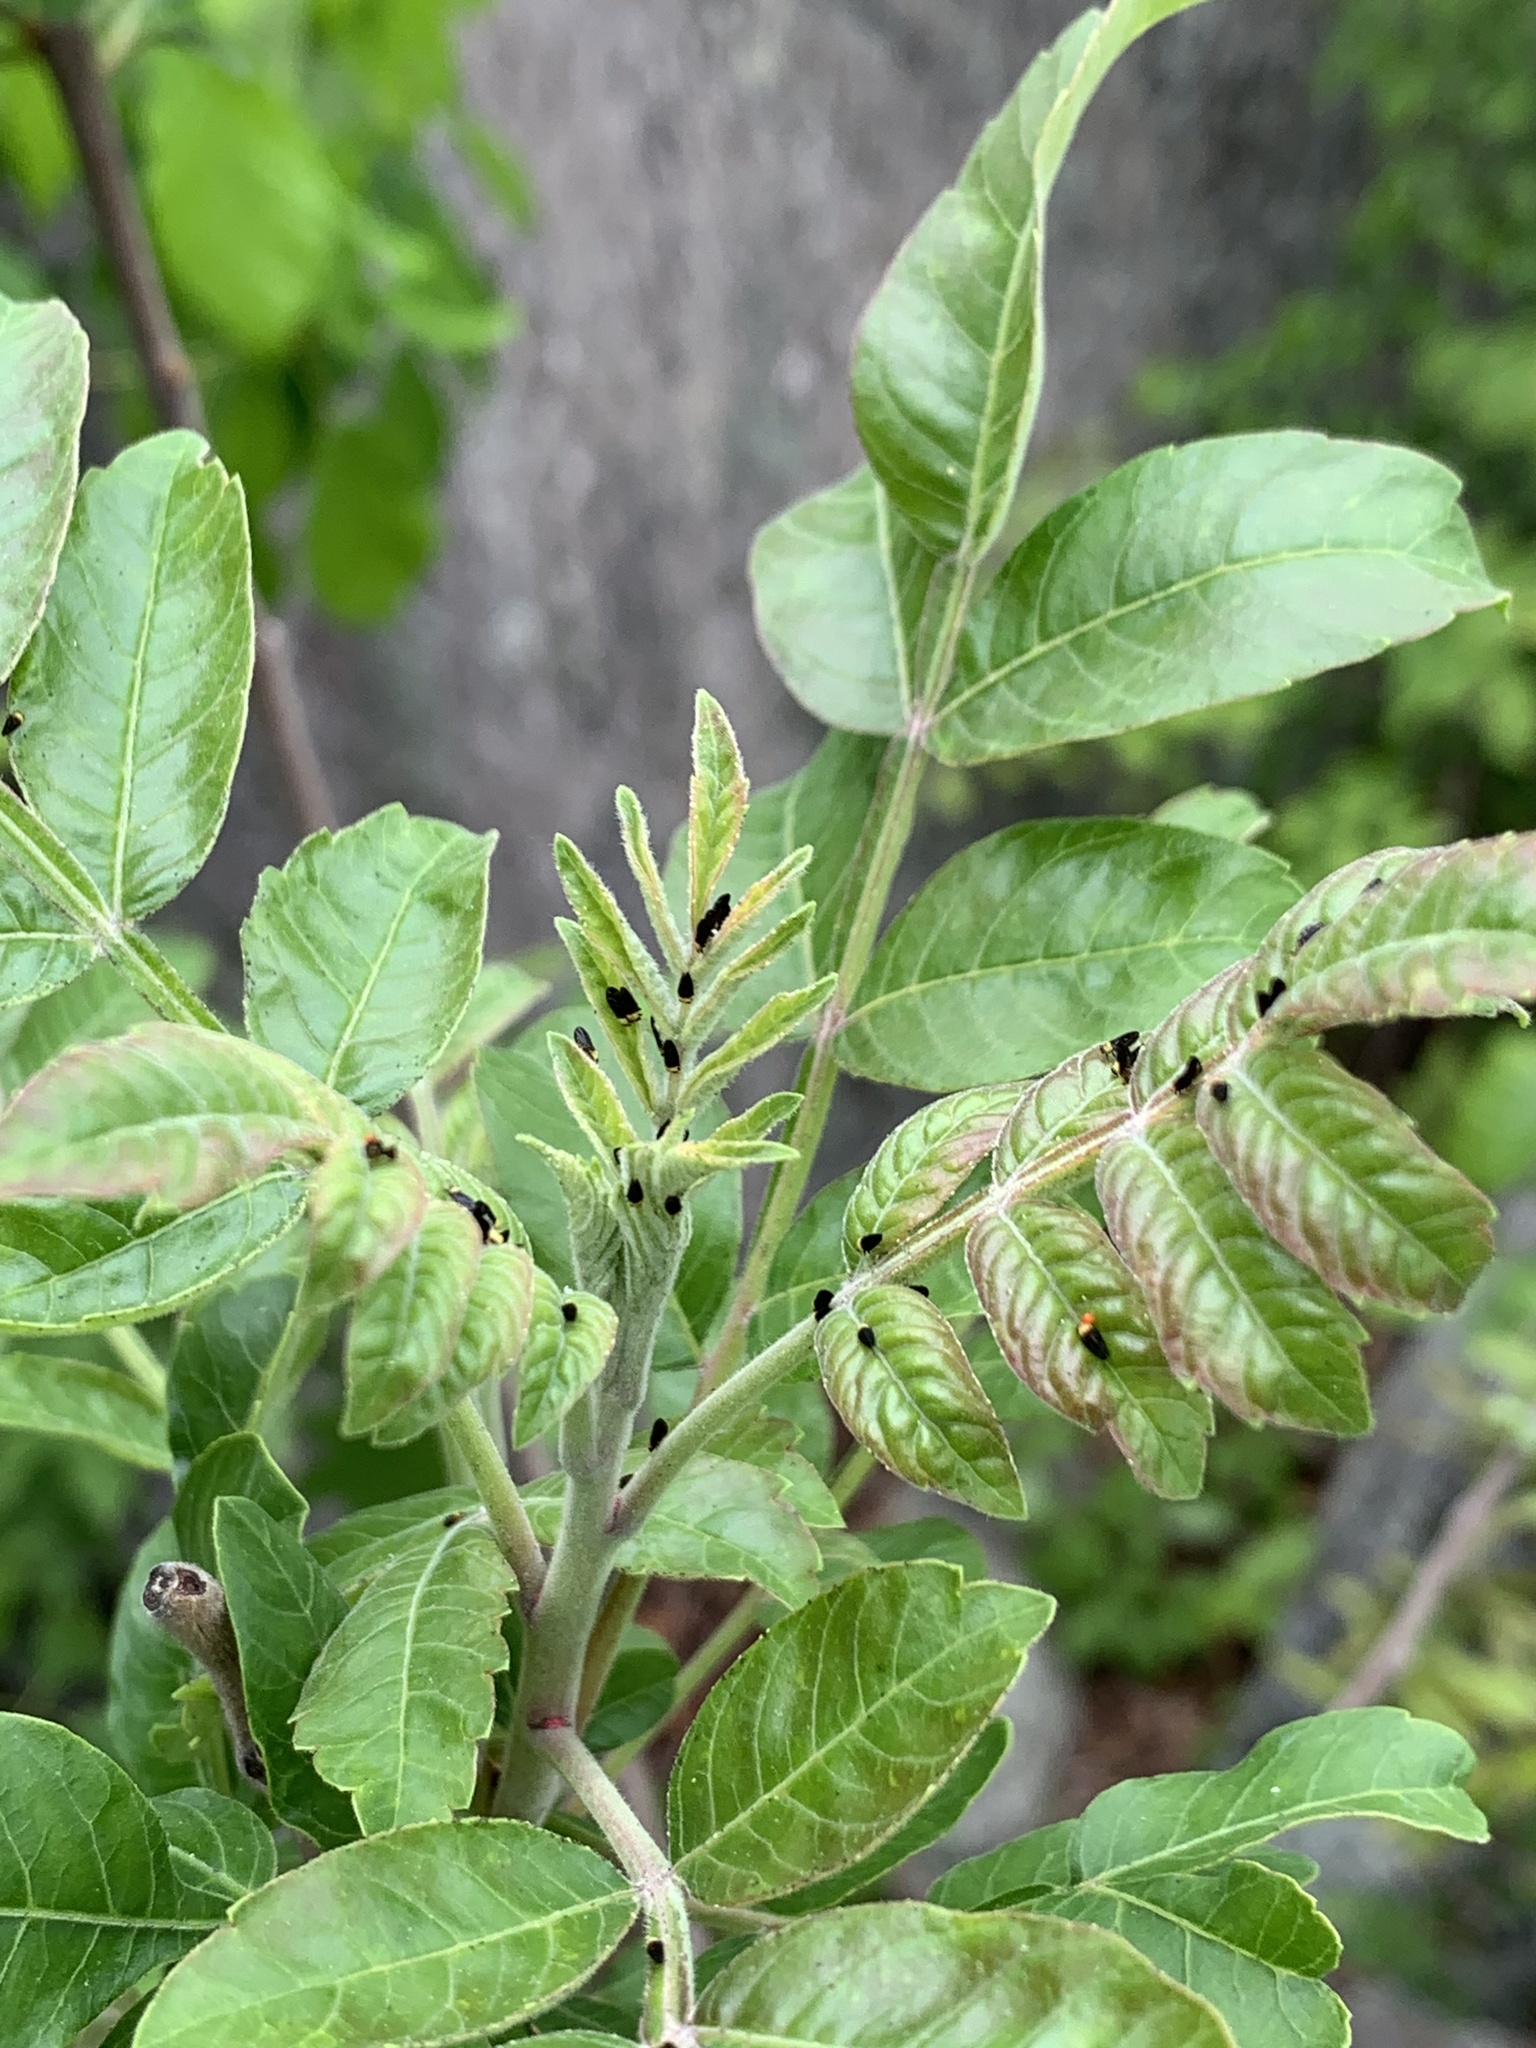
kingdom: Plantae
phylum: Tracheophyta
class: Magnoliopsida
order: Sapindales
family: Anacardiaceae
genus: Rhus
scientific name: Rhus copallina
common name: Shining sumac
